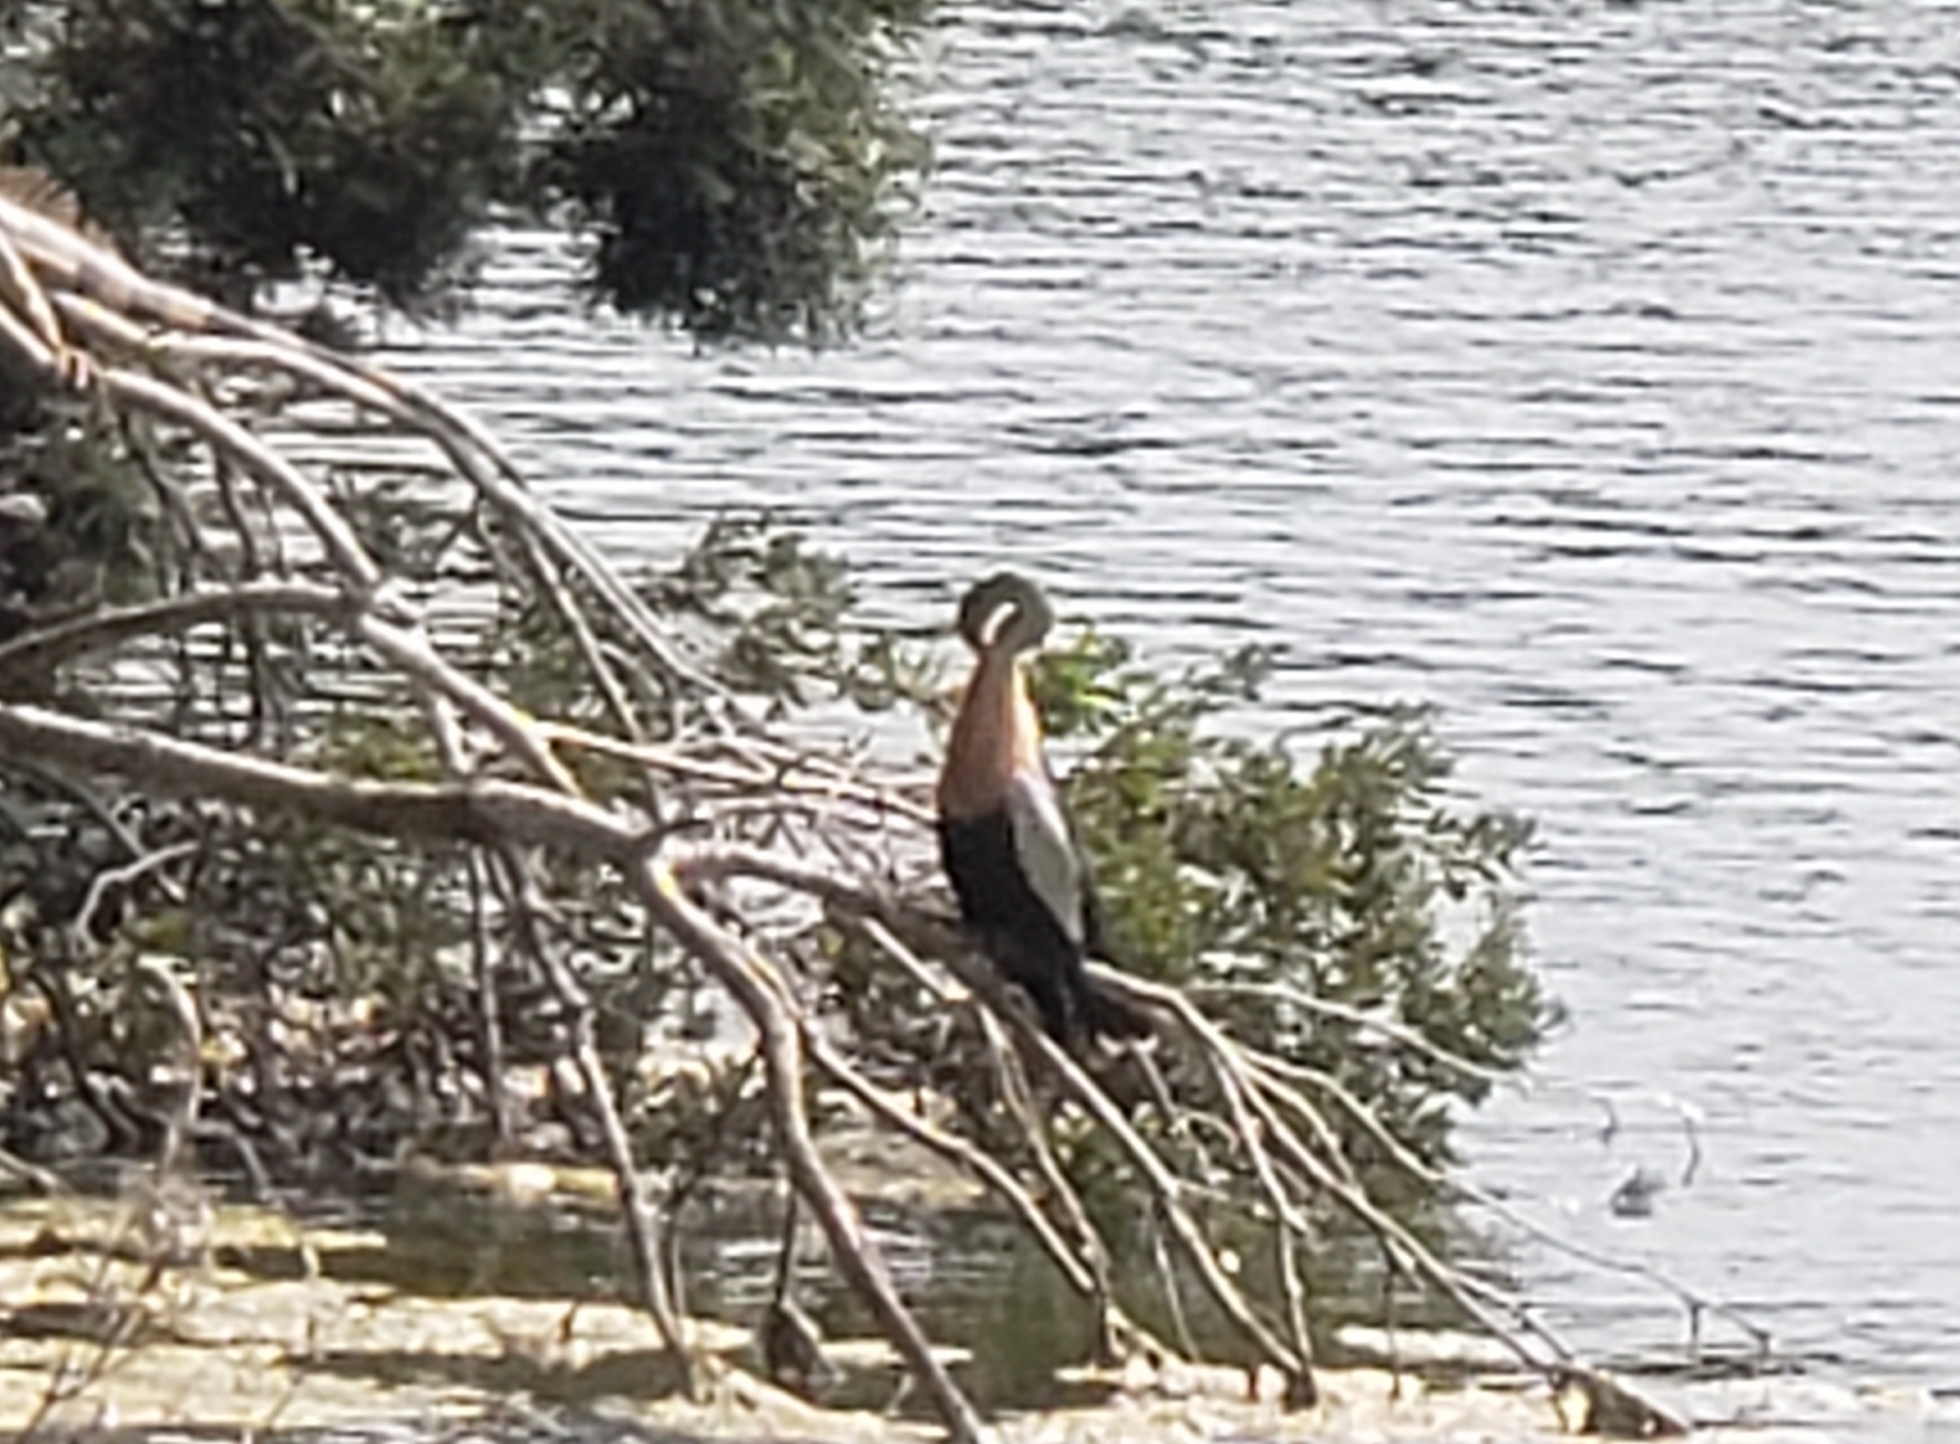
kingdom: Animalia
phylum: Chordata
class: Aves
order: Suliformes
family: Anhingidae
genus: Anhinga
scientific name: Anhinga anhinga
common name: Anhinga
